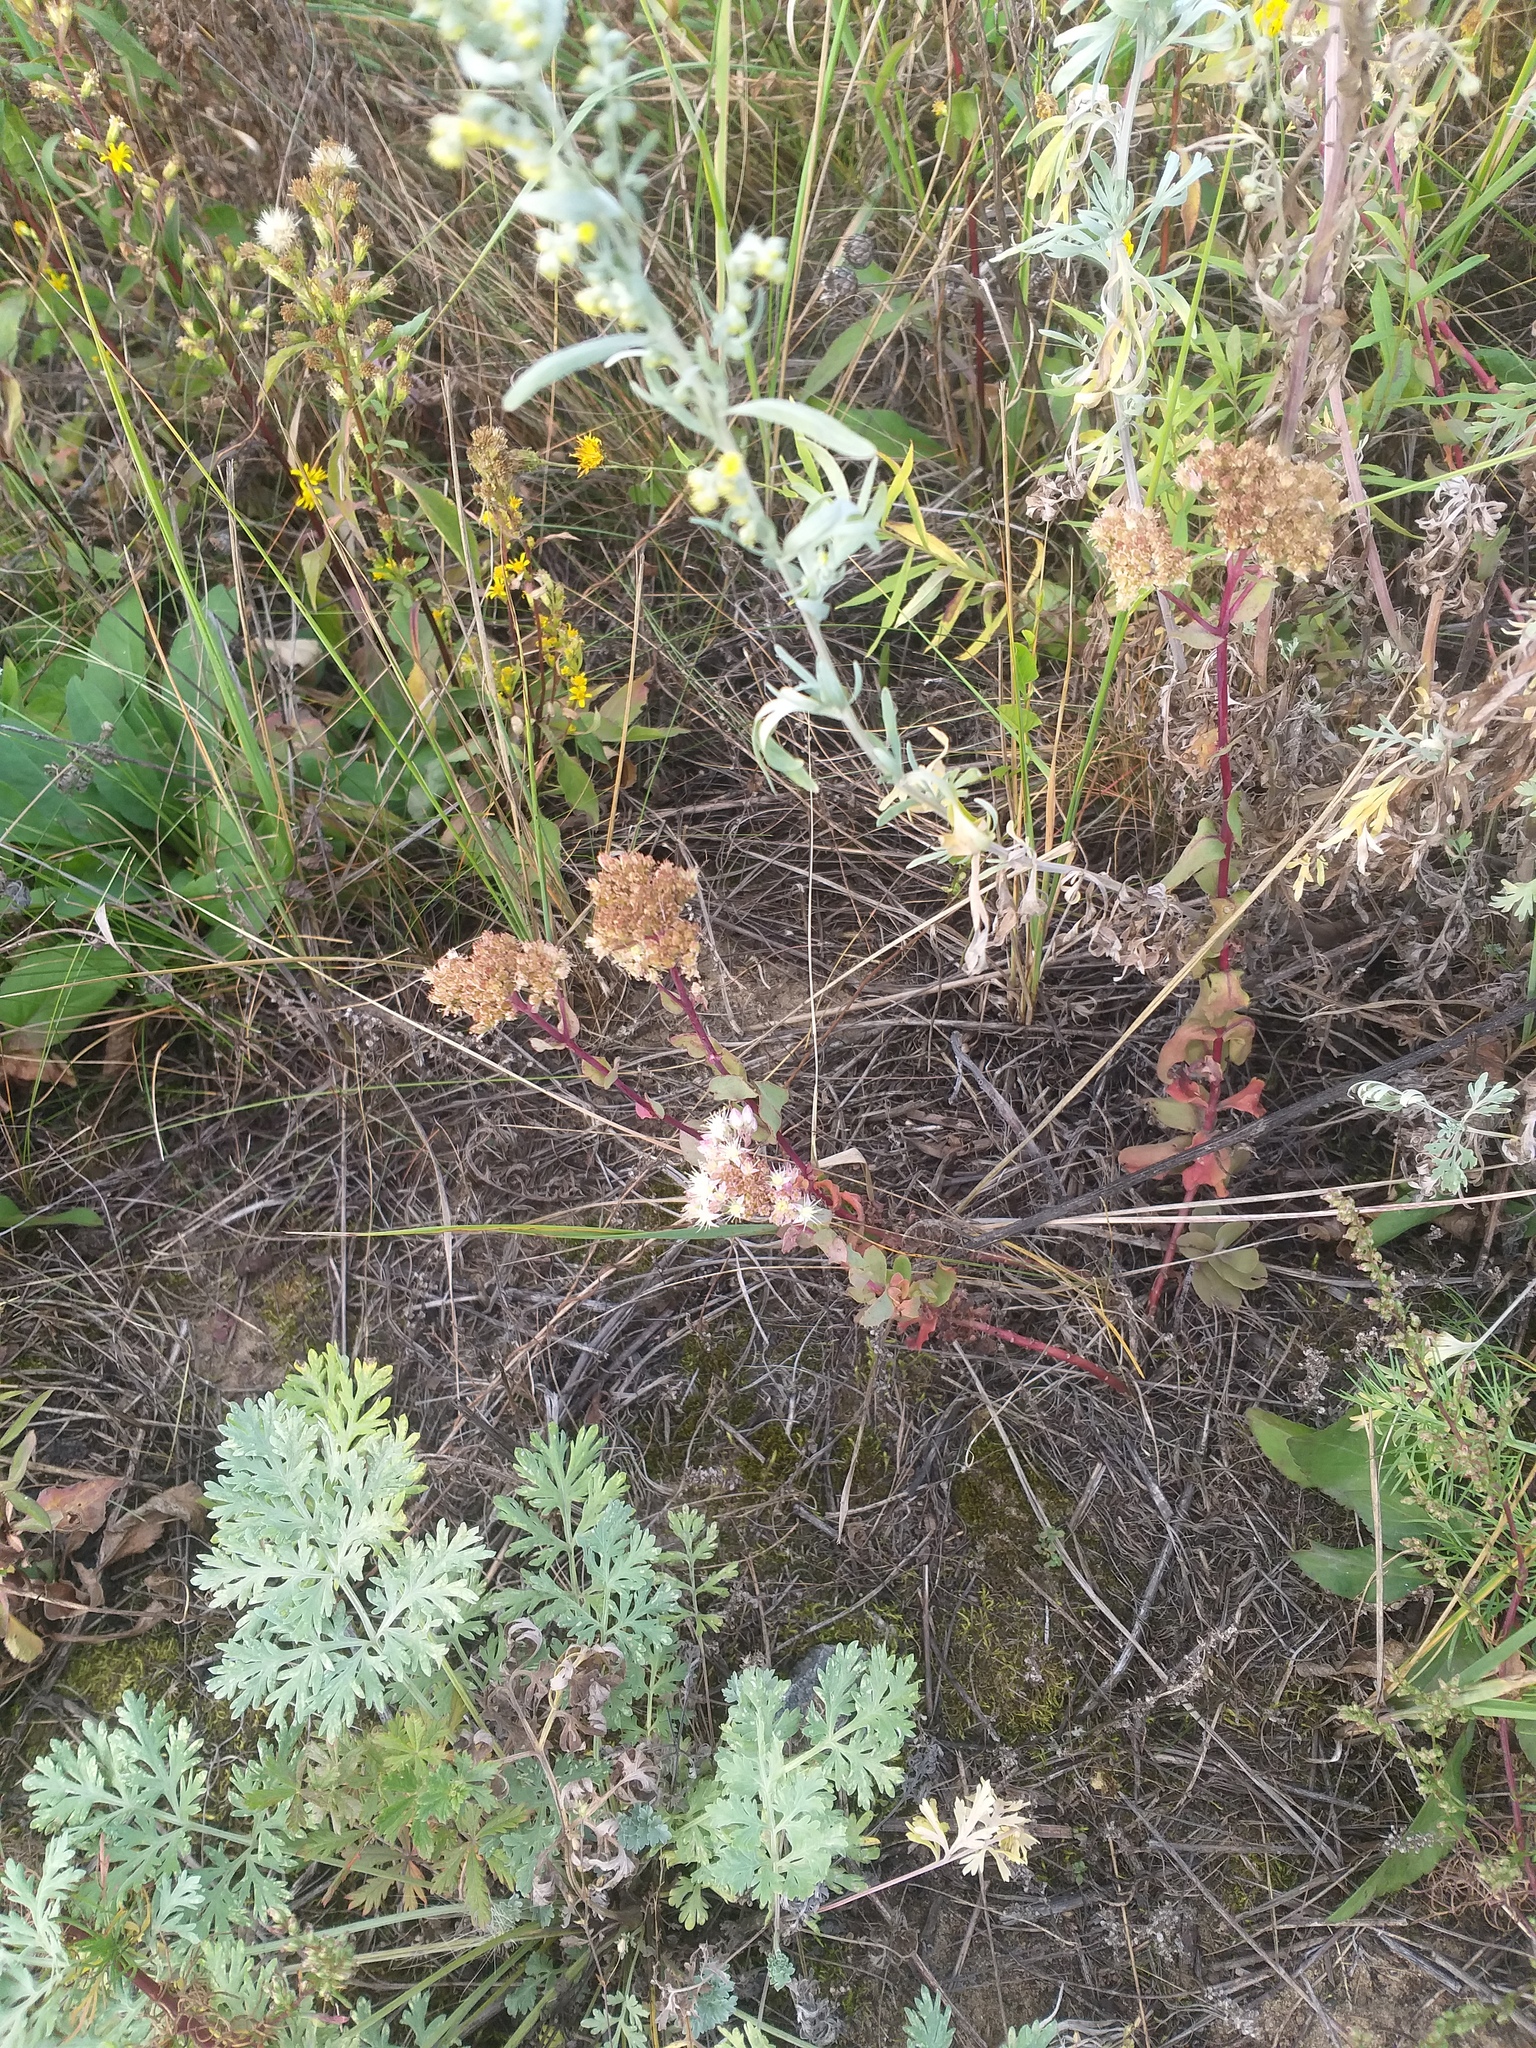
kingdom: Plantae
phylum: Tracheophyta
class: Magnoliopsida
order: Saxifragales
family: Crassulaceae
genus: Hylotelephium
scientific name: Hylotelephium maximum
